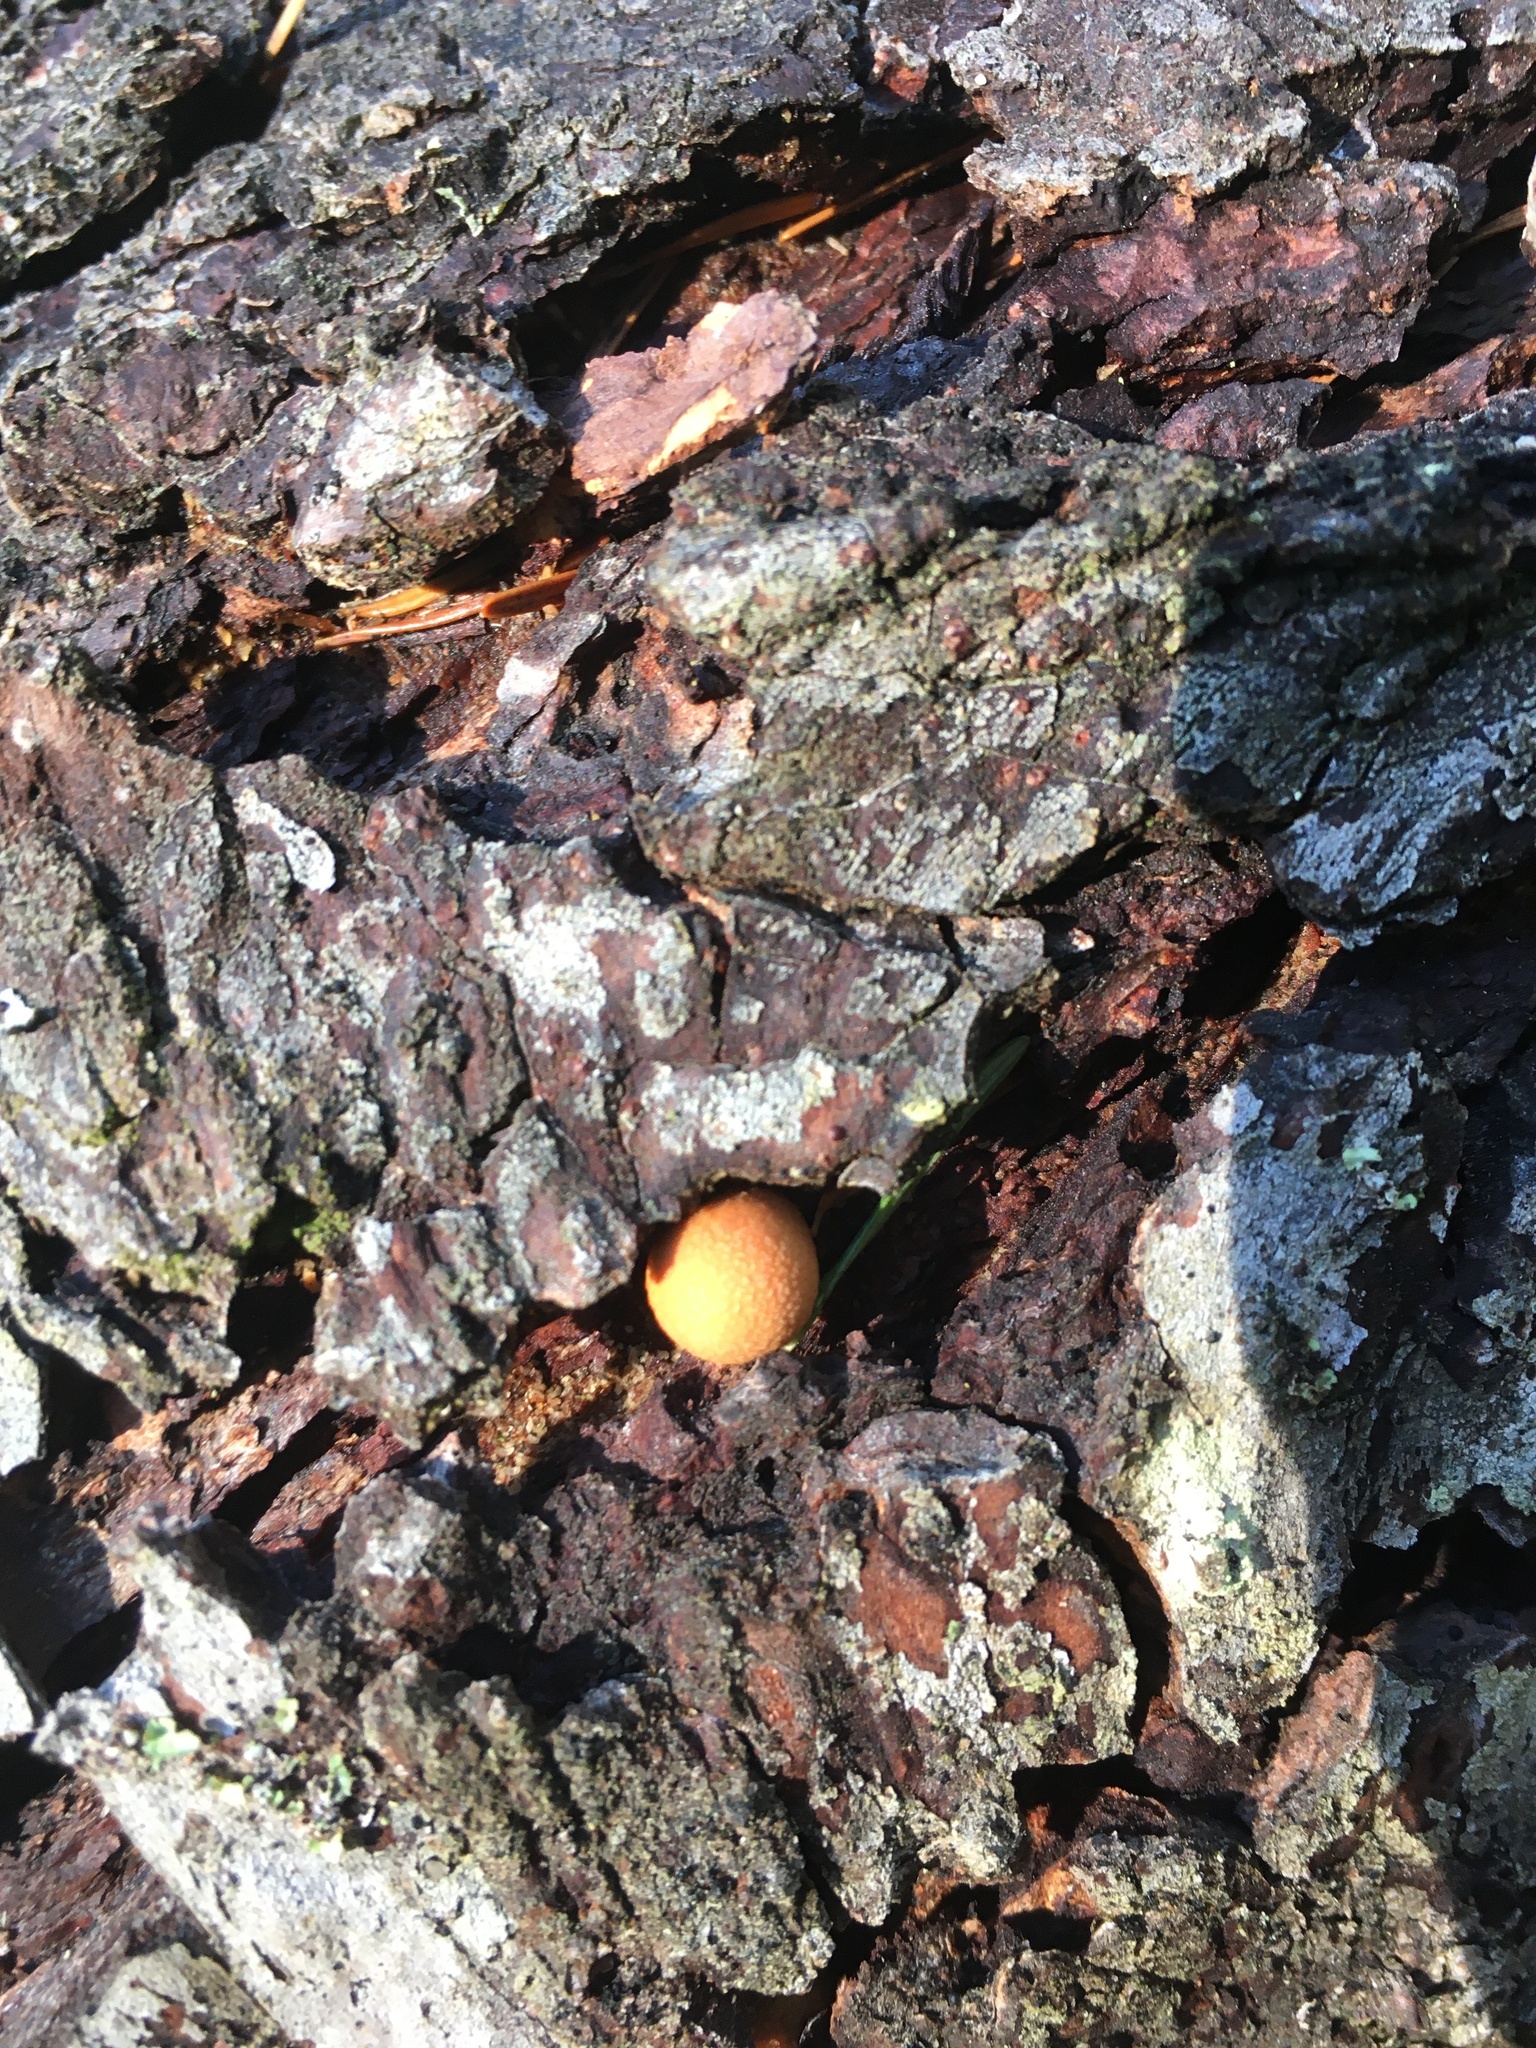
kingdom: Fungi
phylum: Basidiomycota
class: Agaricomycetes
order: Polyporales
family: Polyporaceae
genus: Cryptoporus
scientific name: Cryptoporus volvatus
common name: Veiled polypore
